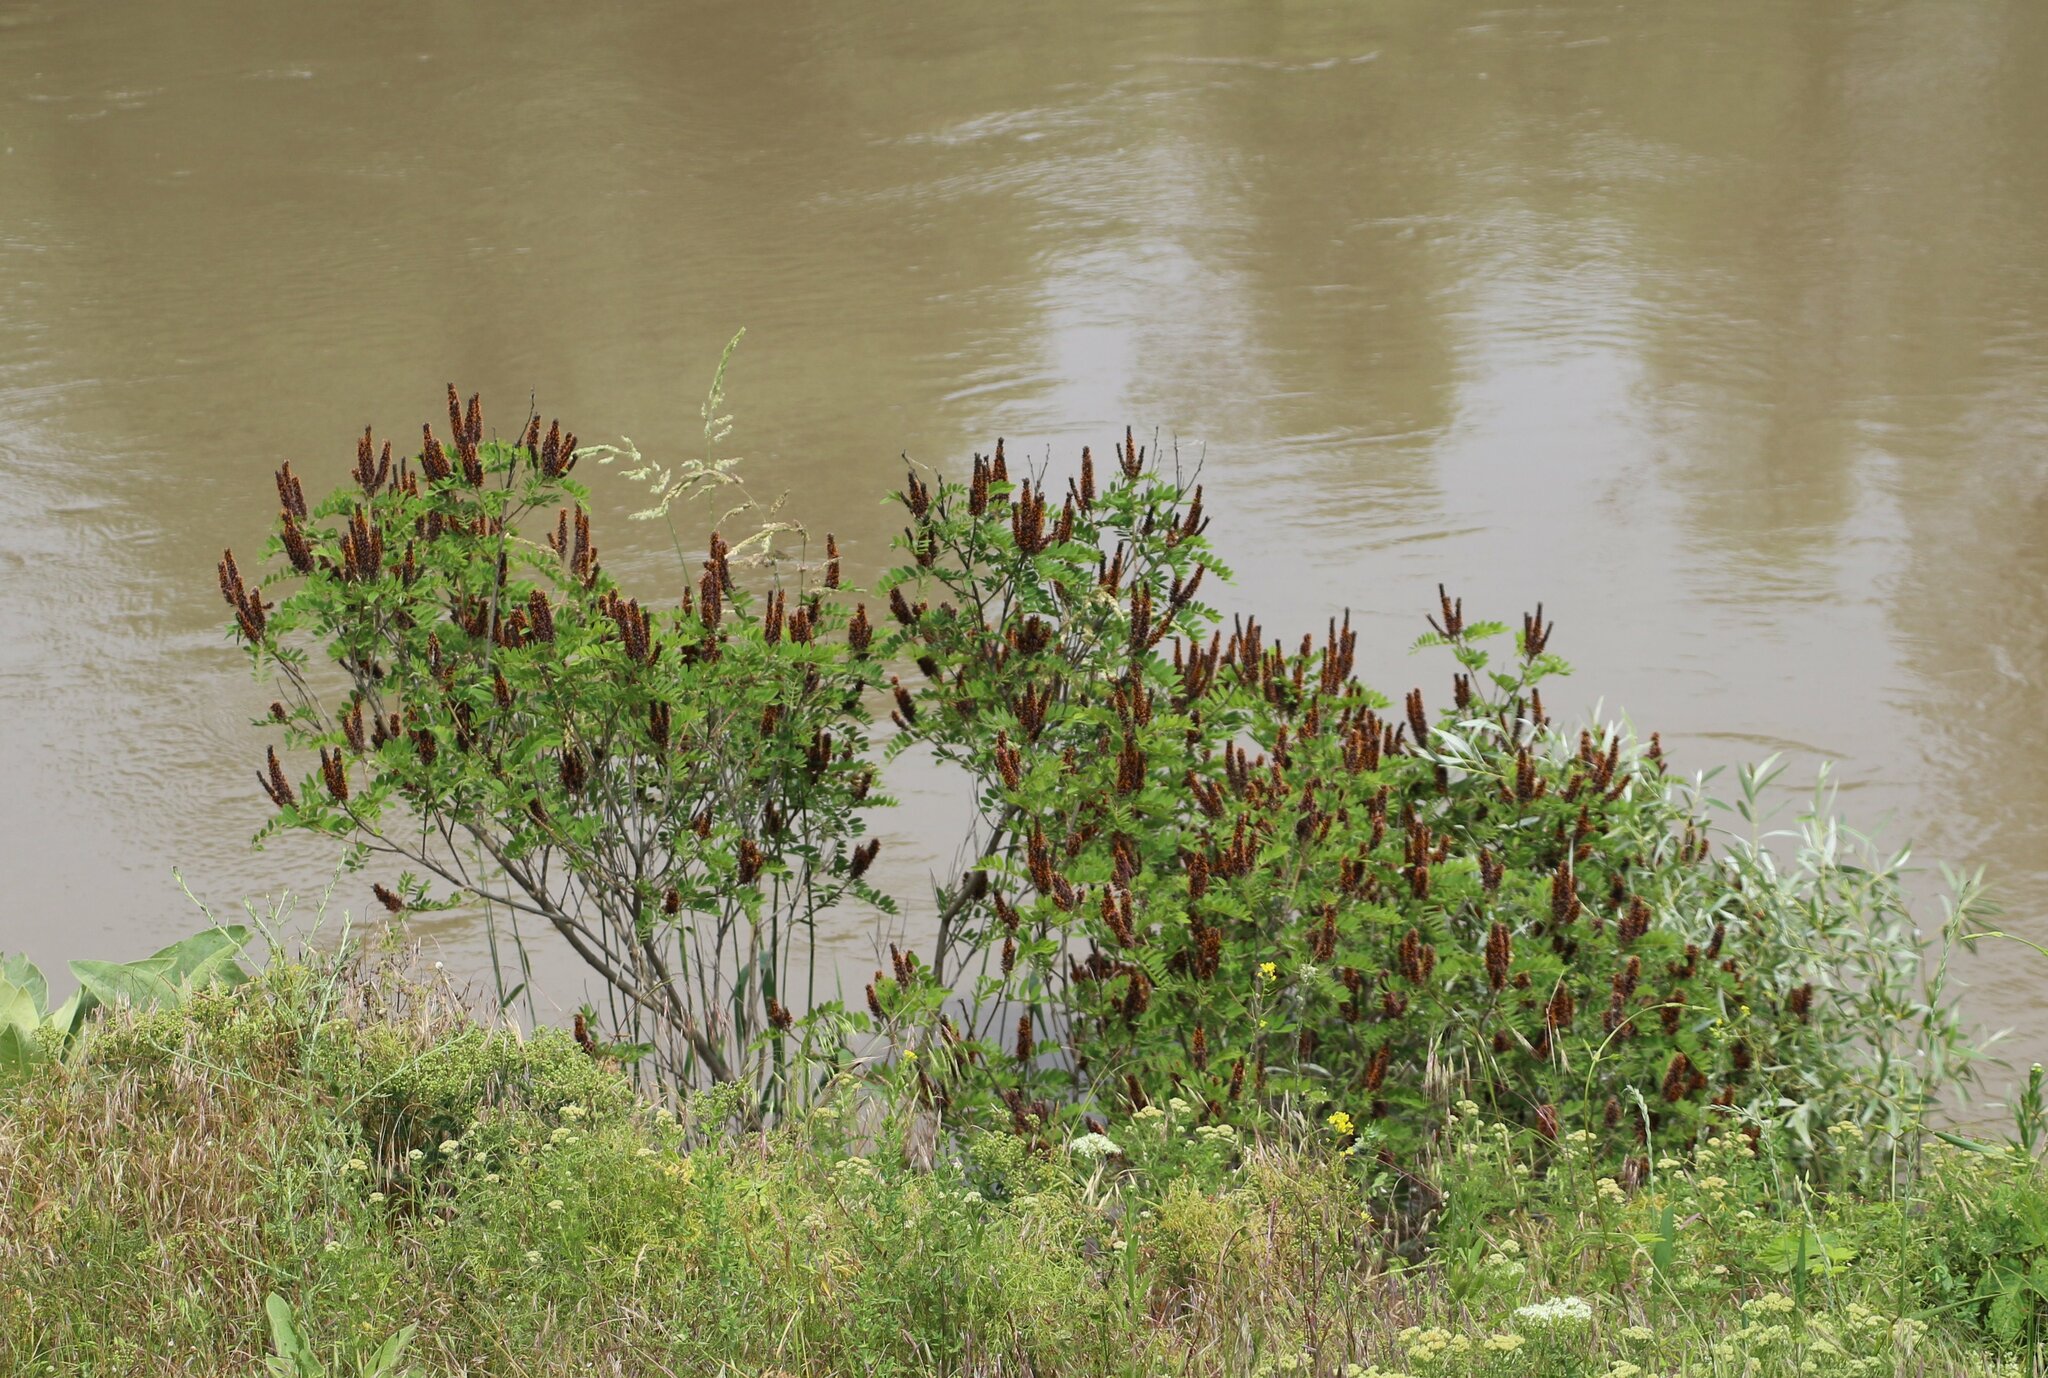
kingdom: Plantae
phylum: Tracheophyta
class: Magnoliopsida
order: Fabales
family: Fabaceae
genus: Amorpha
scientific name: Amorpha fruticosa
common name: False indigo
